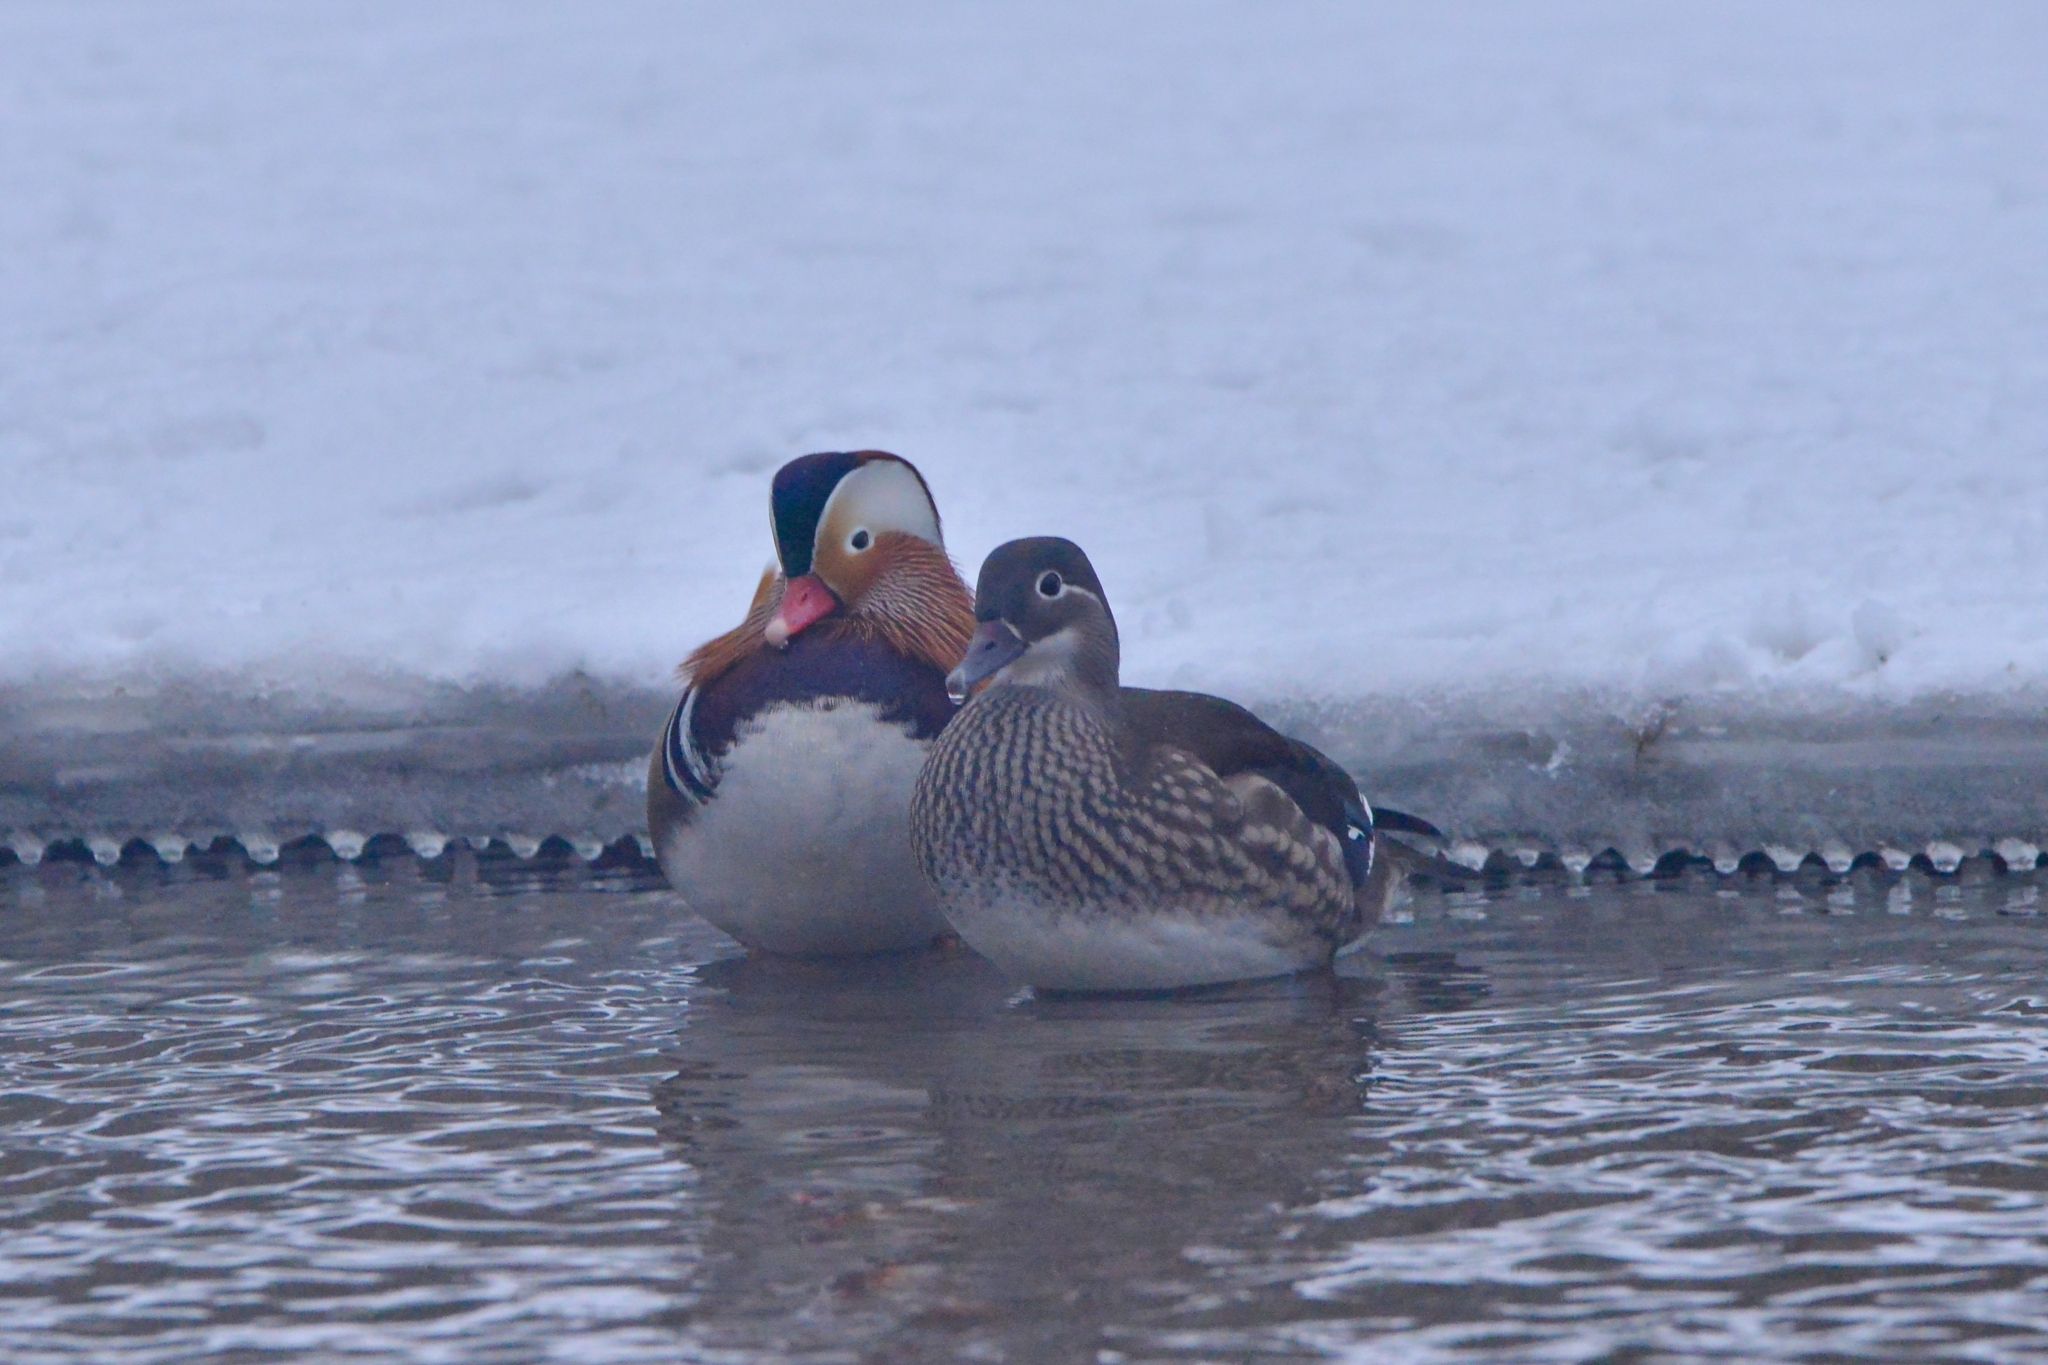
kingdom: Animalia
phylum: Chordata
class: Aves
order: Anseriformes
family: Anatidae
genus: Aix
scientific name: Aix galericulata
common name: Mandarin duck
